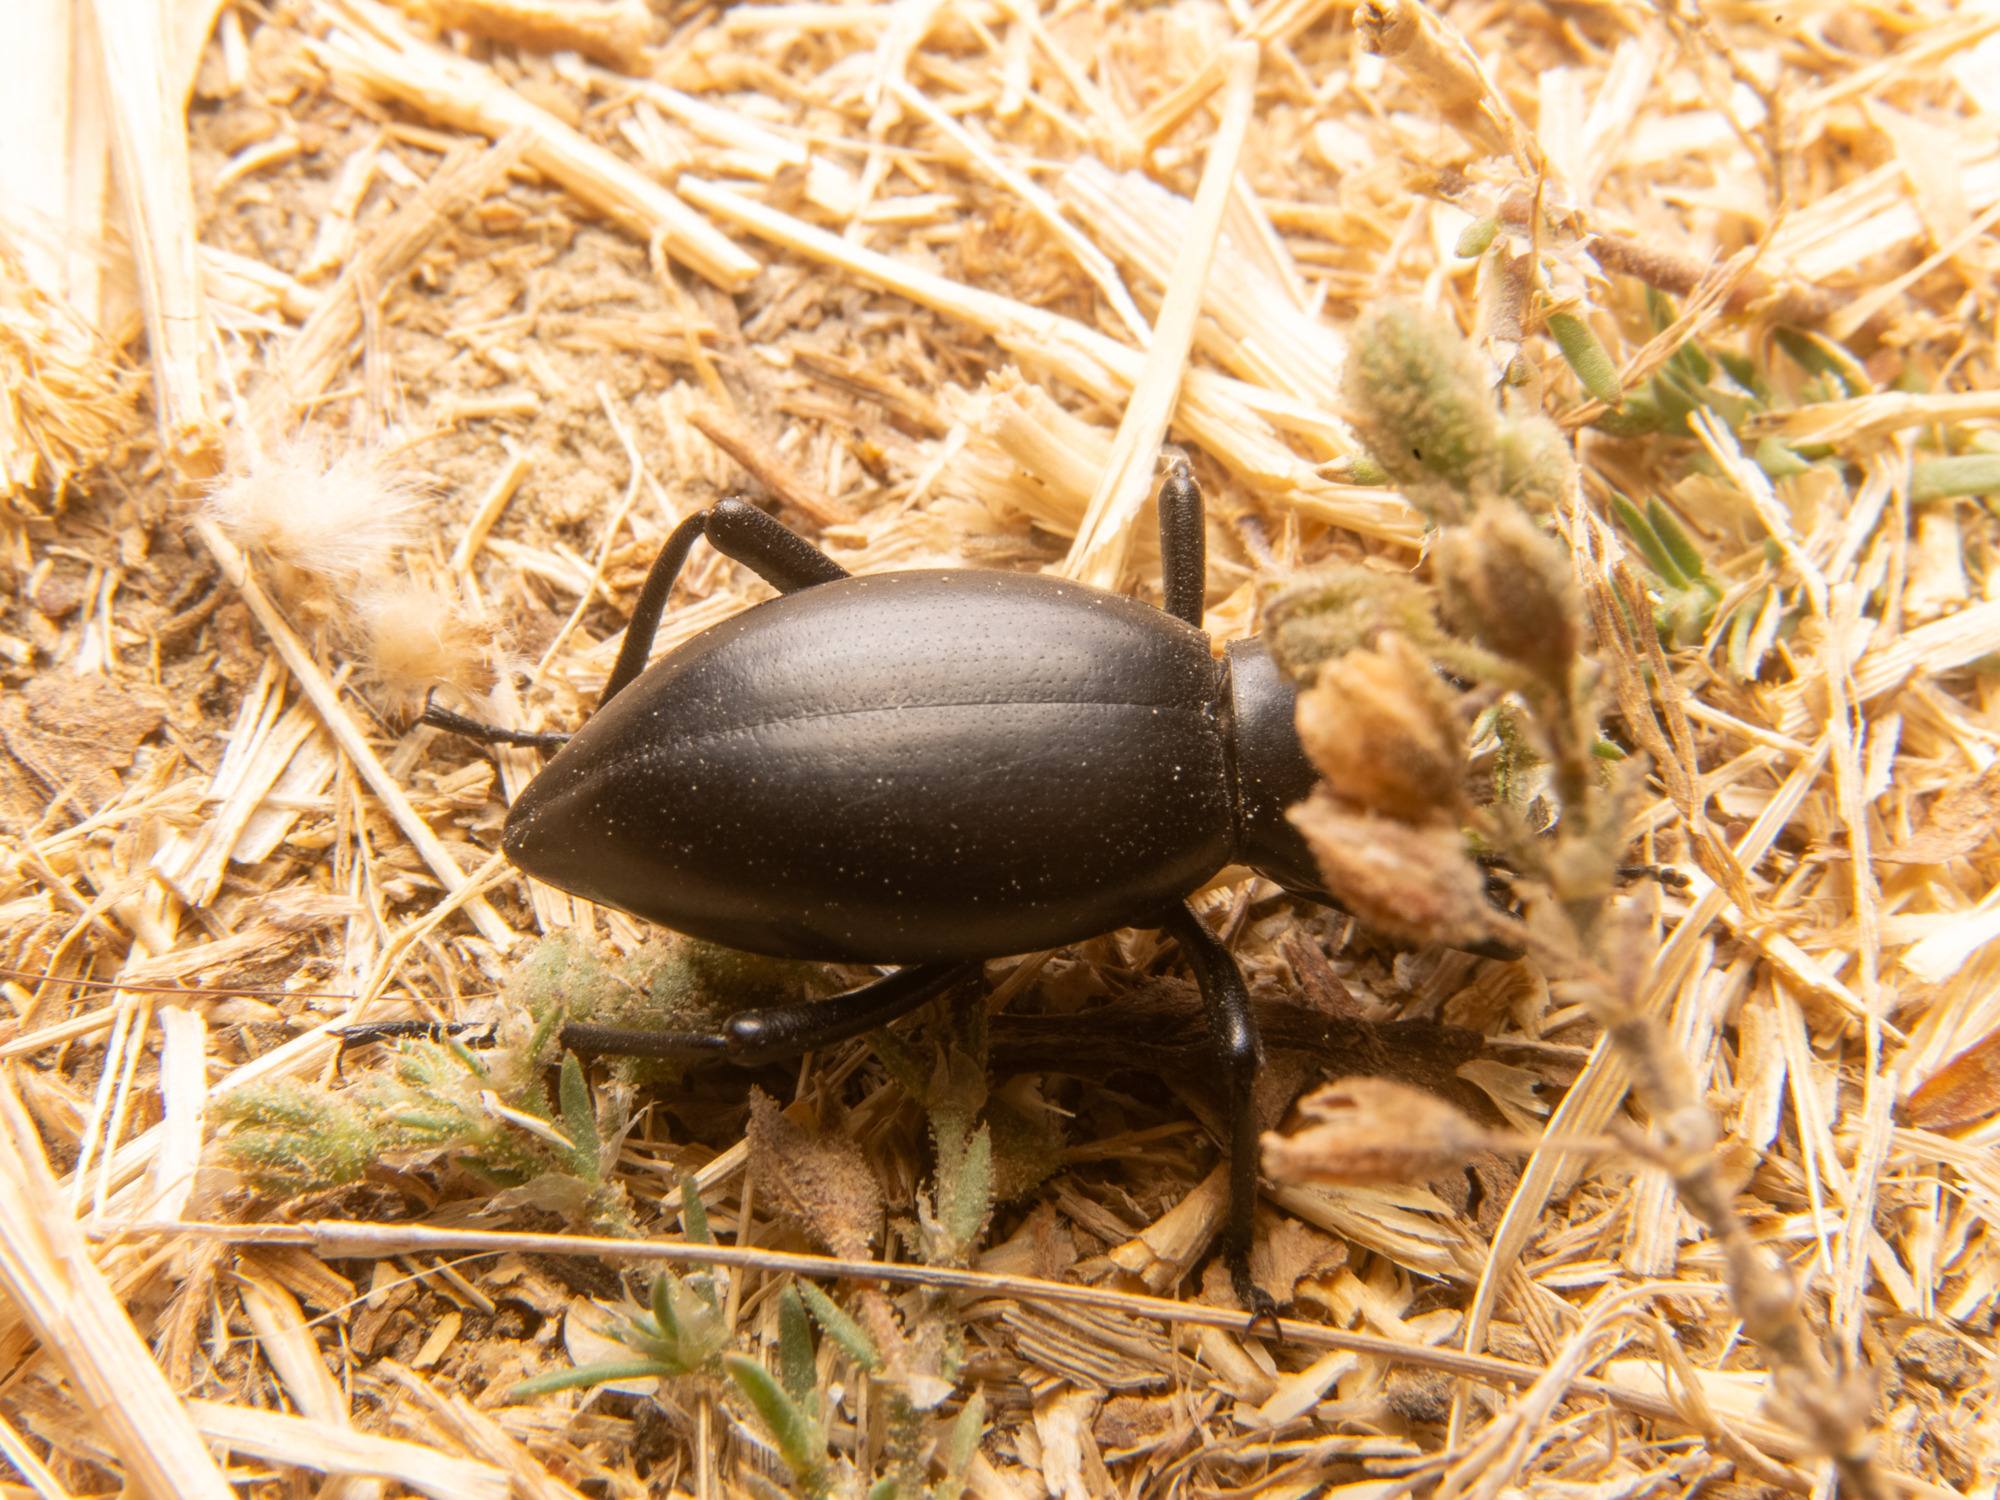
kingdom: Animalia
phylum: Arthropoda
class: Insecta
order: Coleoptera
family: Tenebrionidae
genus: Eleodes
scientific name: Eleodes dentipes
